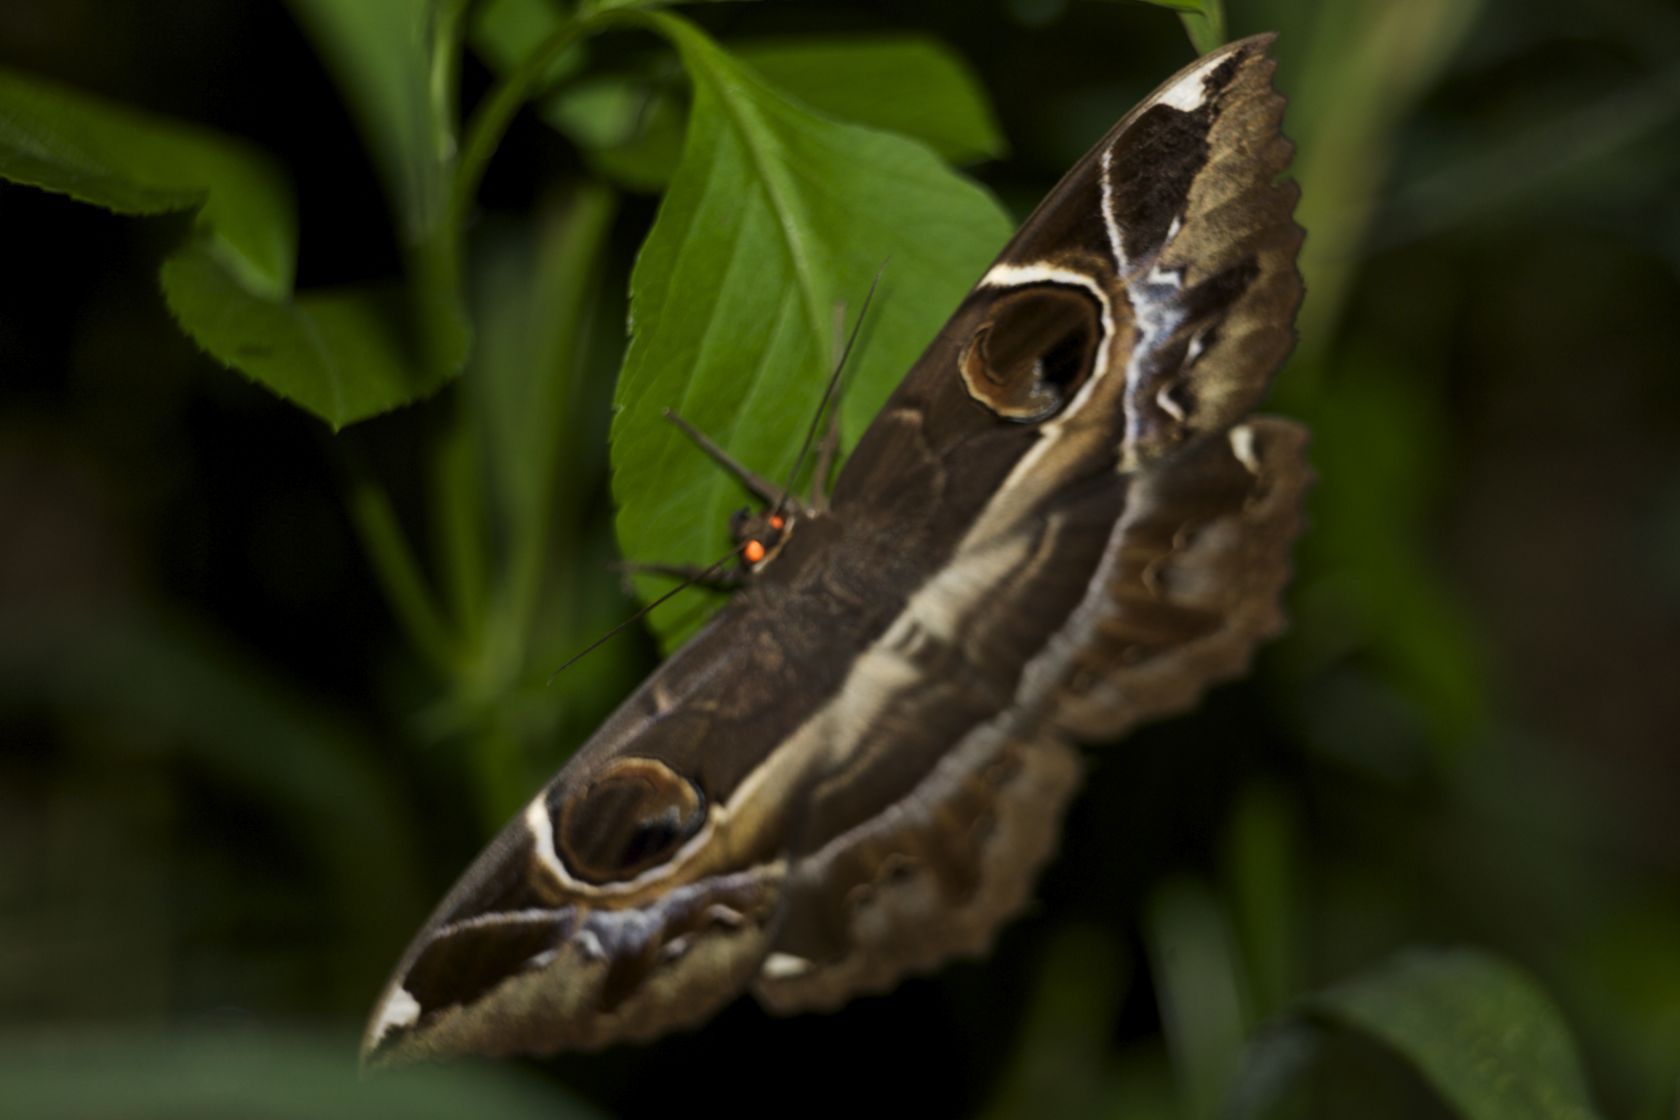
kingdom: Animalia
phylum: Arthropoda
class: Insecta
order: Lepidoptera
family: Erebidae
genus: Erebus
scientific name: Erebus ephesperis
